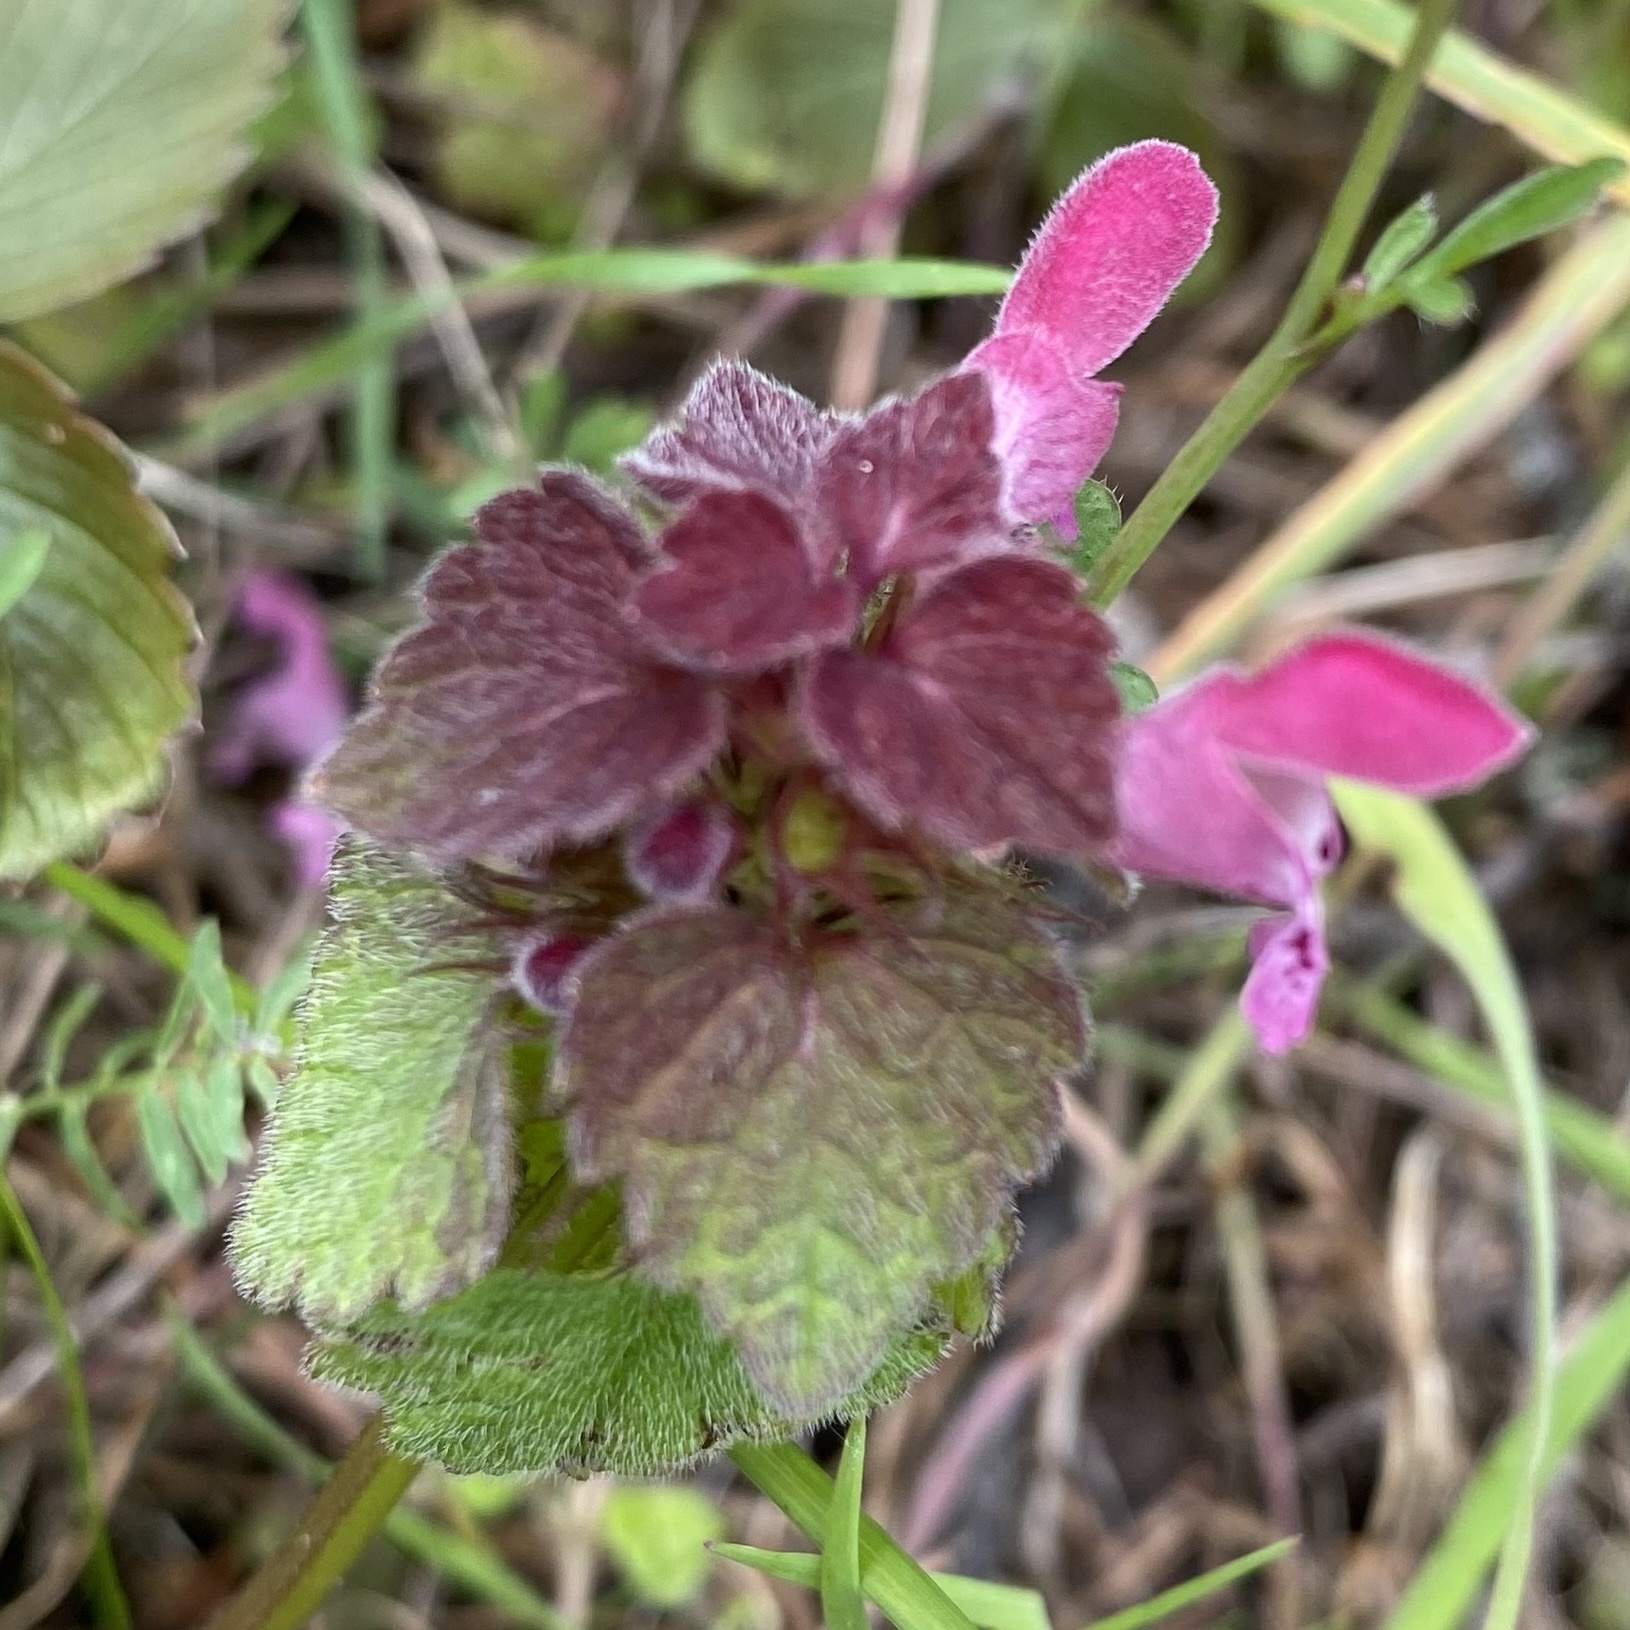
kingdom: Plantae
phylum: Tracheophyta
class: Magnoliopsida
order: Lamiales
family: Lamiaceae
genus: Lamium
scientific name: Lamium purpureum
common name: Red dead-nettle
